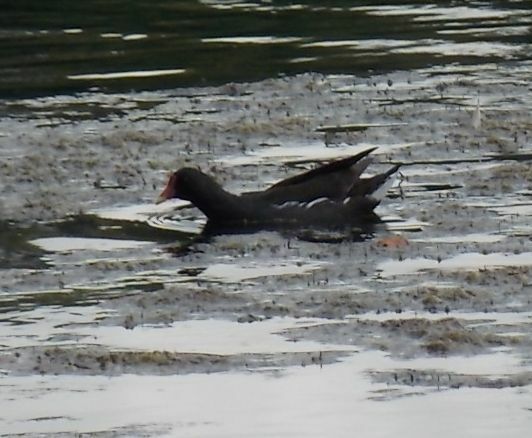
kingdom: Animalia
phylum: Chordata
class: Aves
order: Gruiformes
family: Rallidae
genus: Gallinula
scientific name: Gallinula chloropus
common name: Common moorhen
